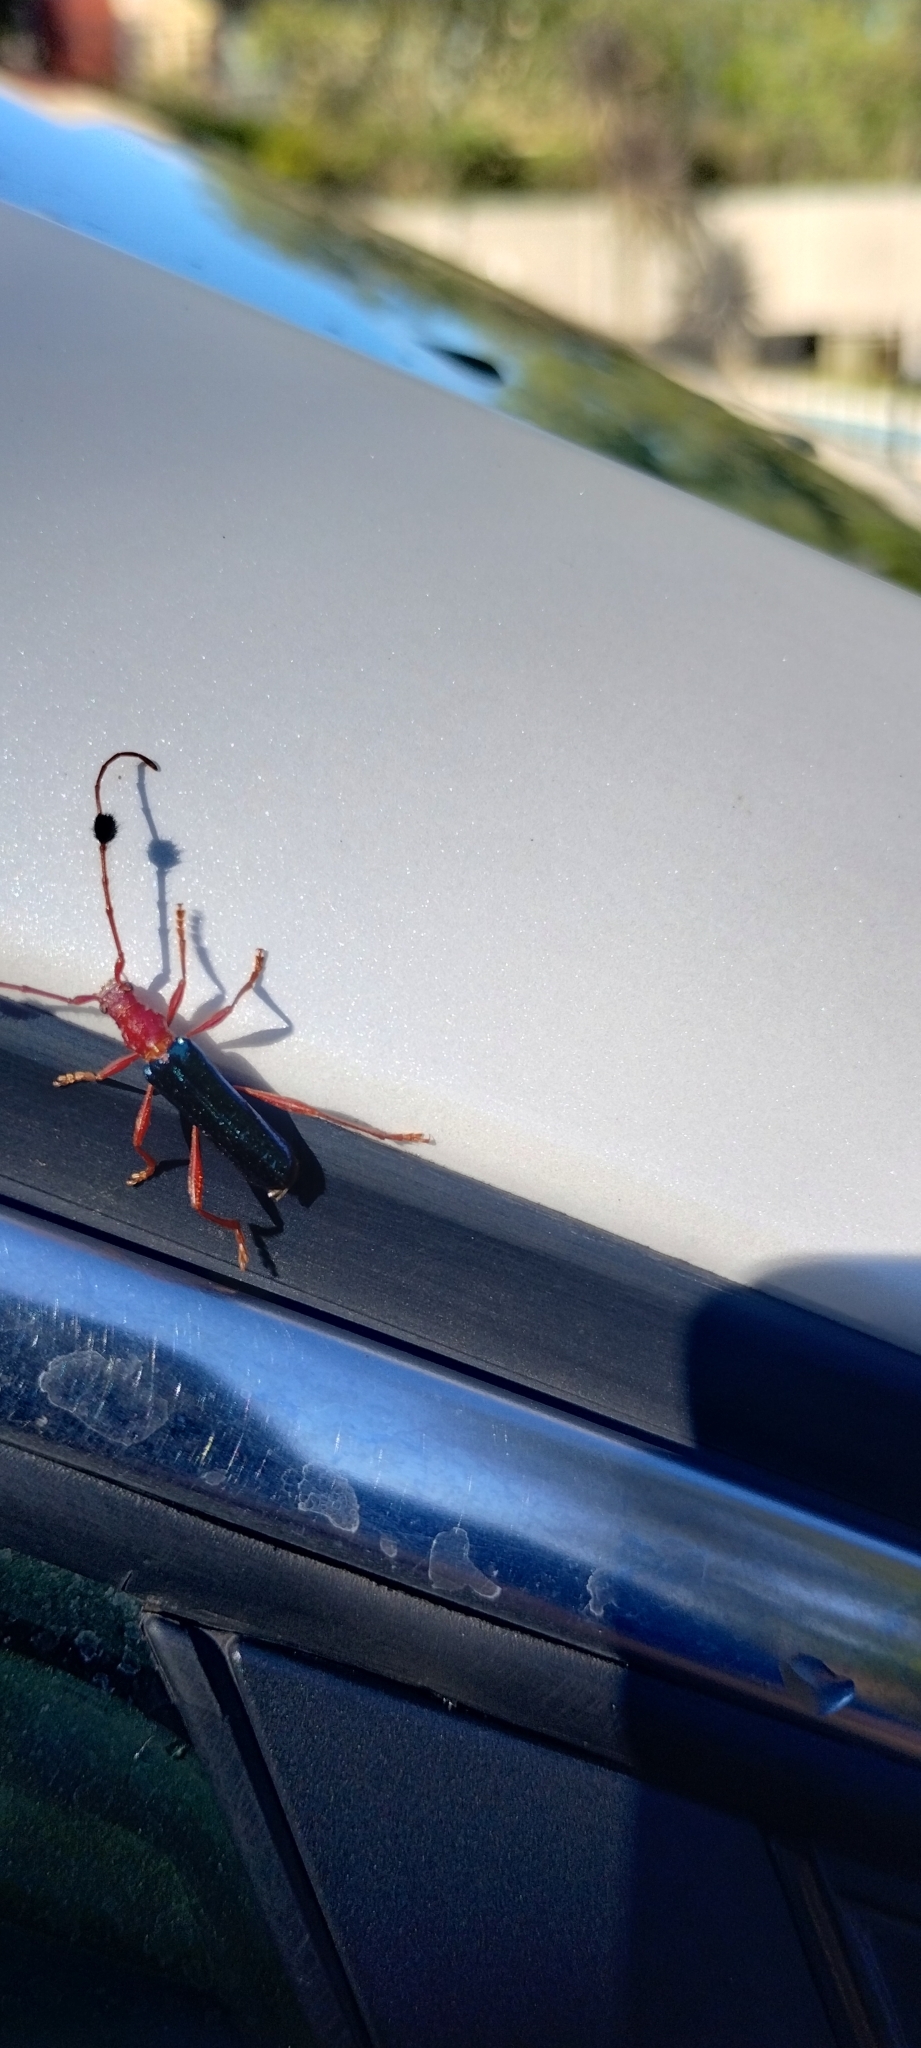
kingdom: Animalia
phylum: Arthropoda
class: Insecta
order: Coleoptera
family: Cerambycidae
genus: Paromoeocerus
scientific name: Paromoeocerus barbicornis
